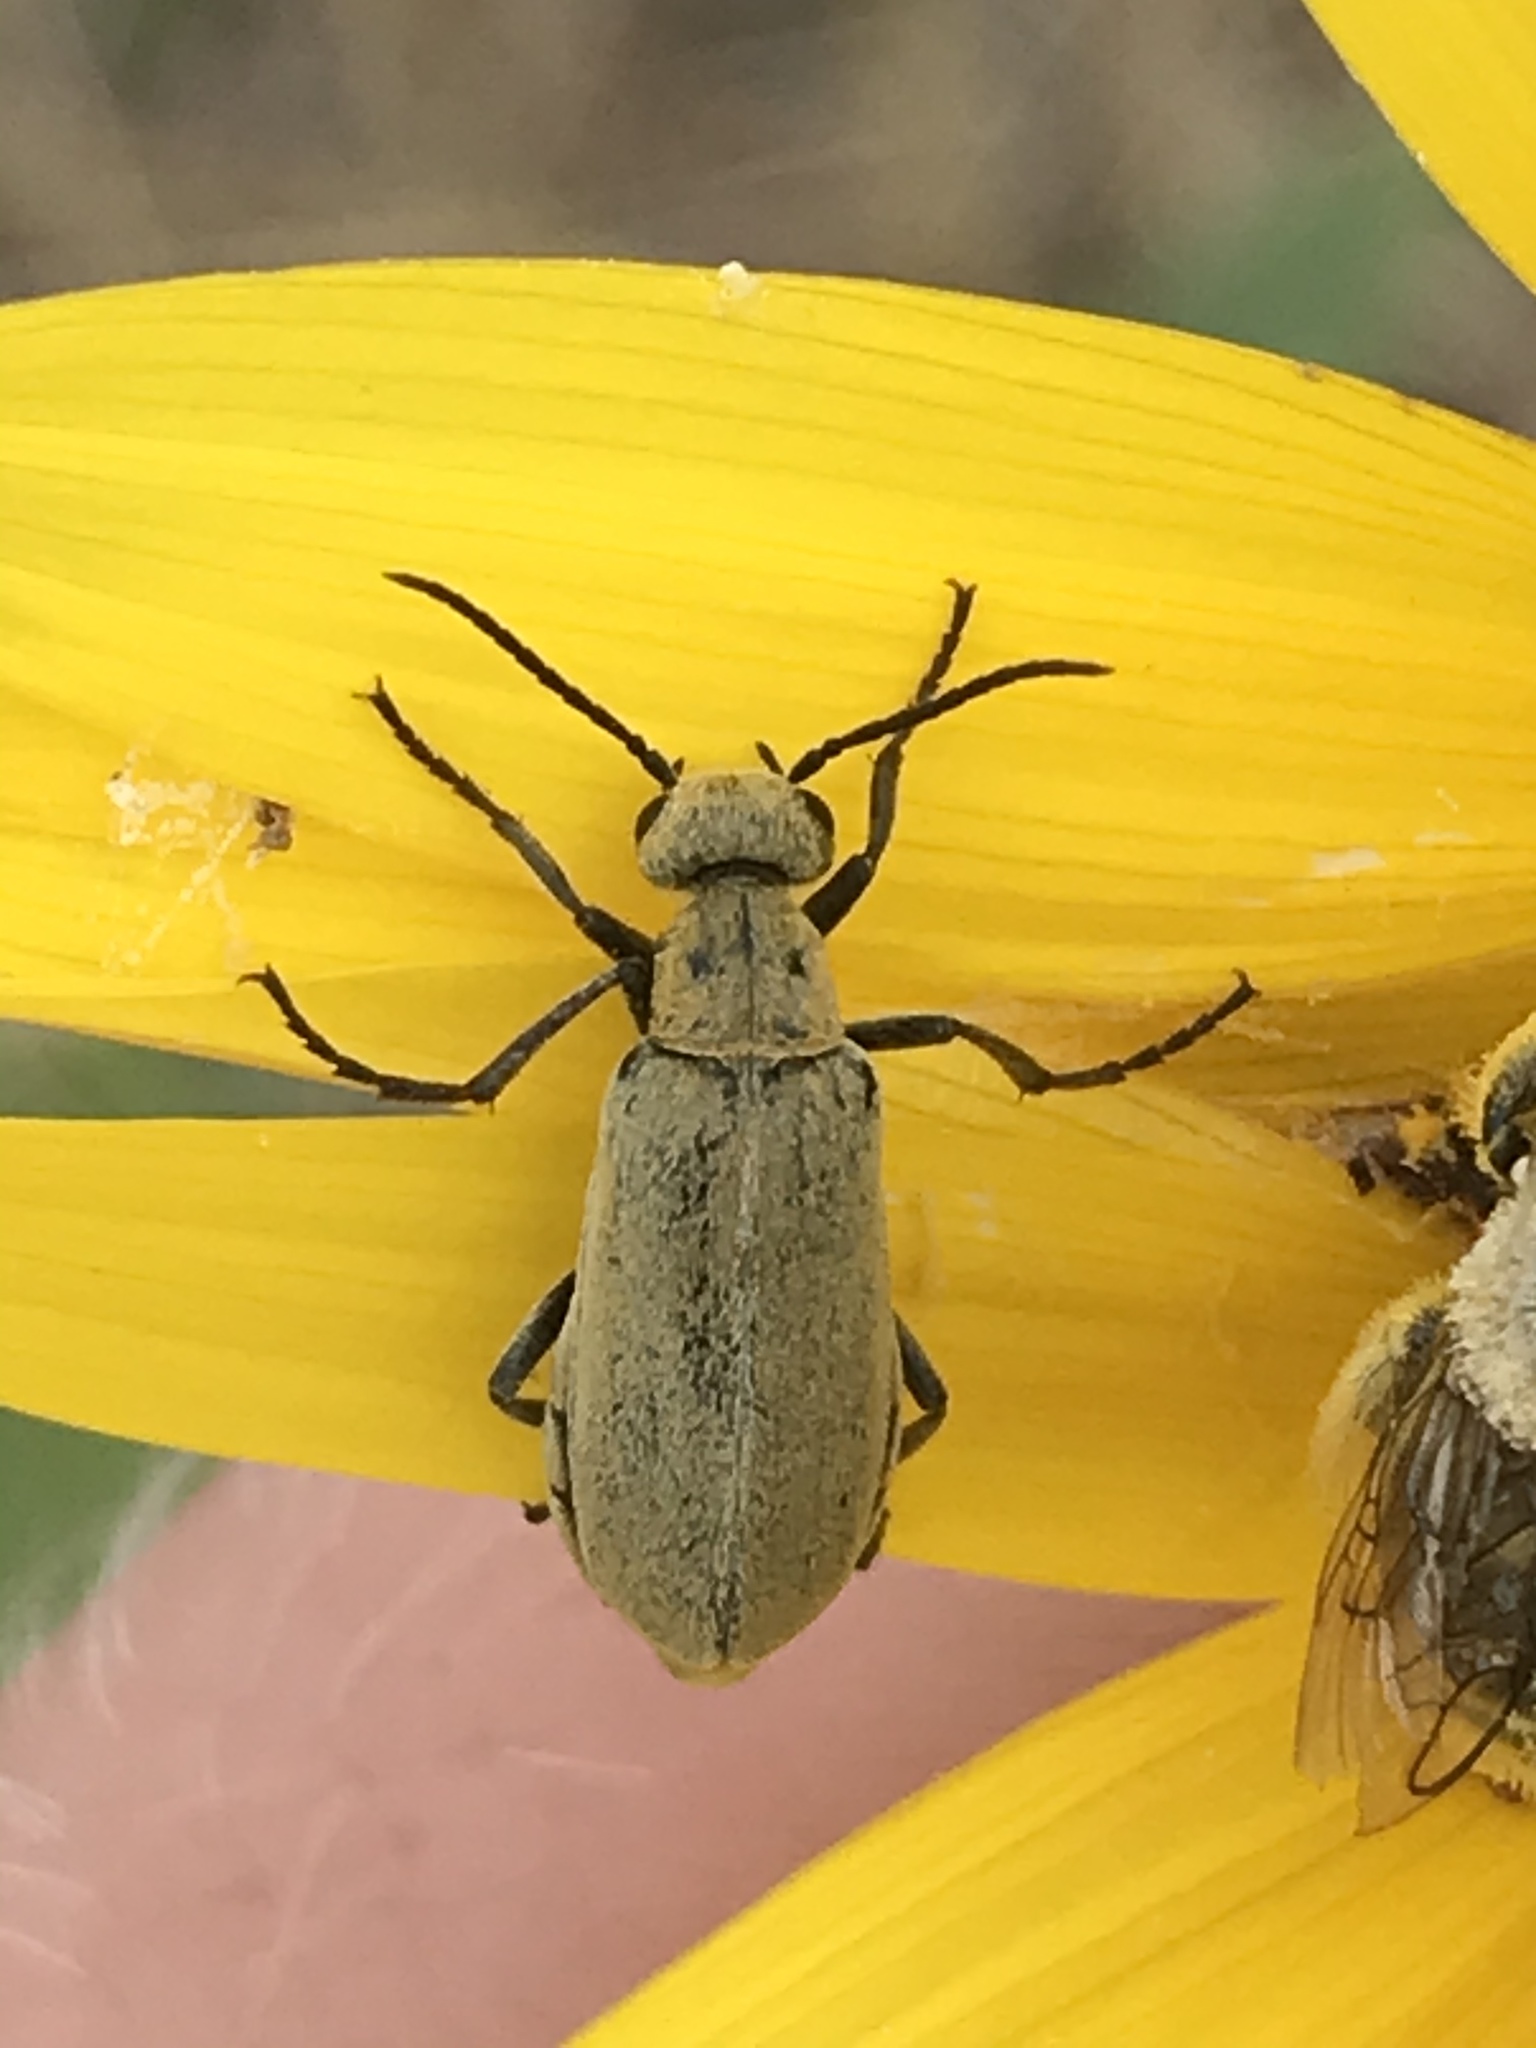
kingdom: Animalia
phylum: Arthropoda
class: Insecta
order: Coleoptera
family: Meloidae
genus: Epicauta
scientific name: Epicauta callosa
